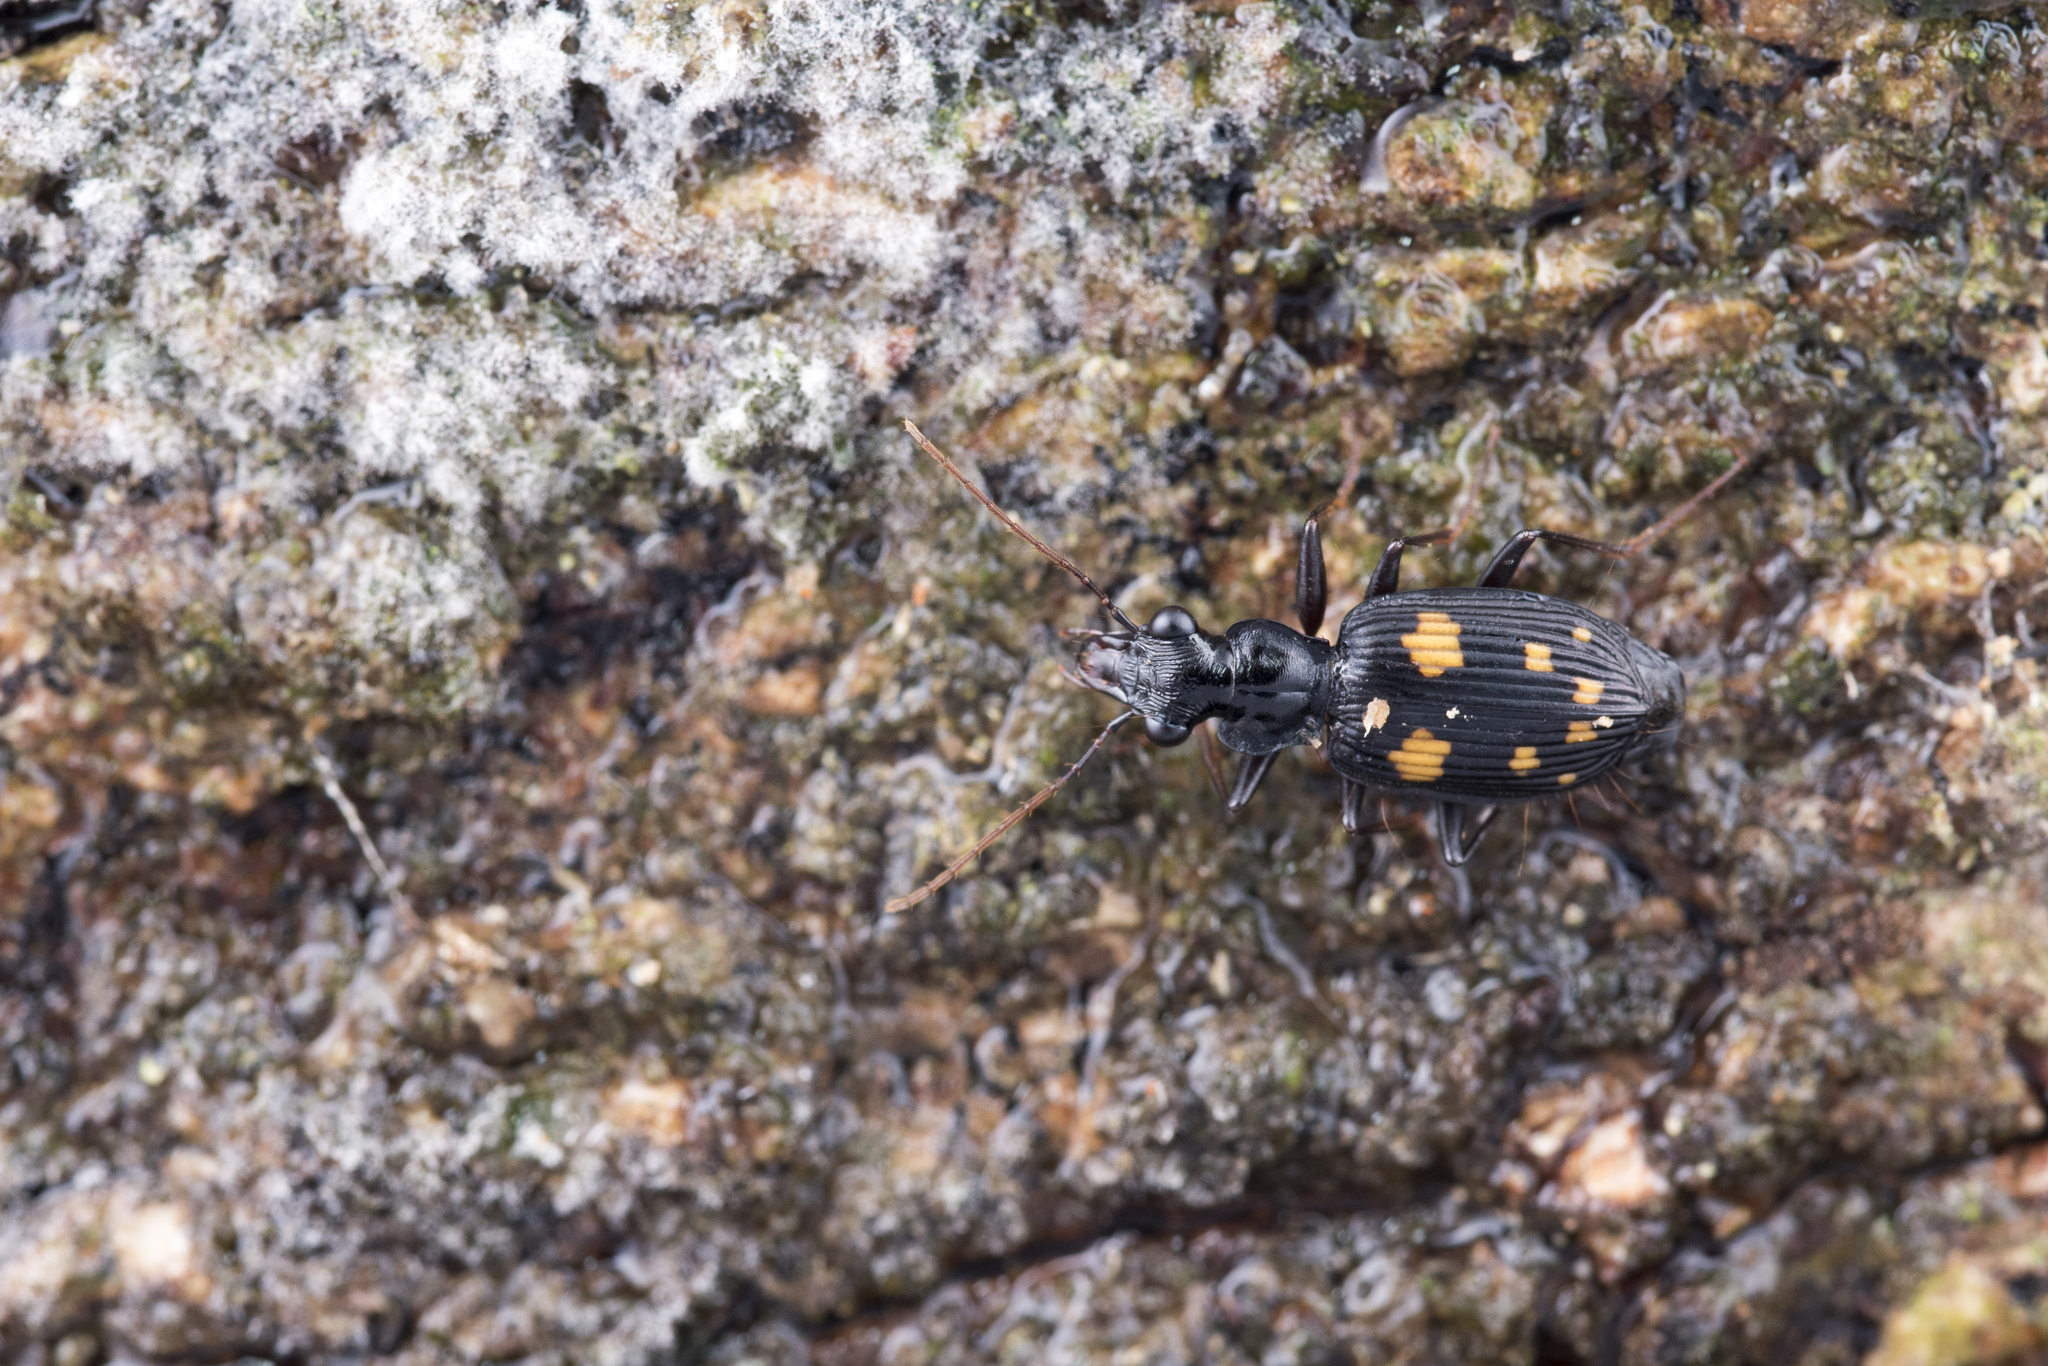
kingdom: Animalia
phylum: Arthropoda
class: Insecta
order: Coleoptera
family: Carabidae
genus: Pericalus
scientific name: Pericalus ornatus
